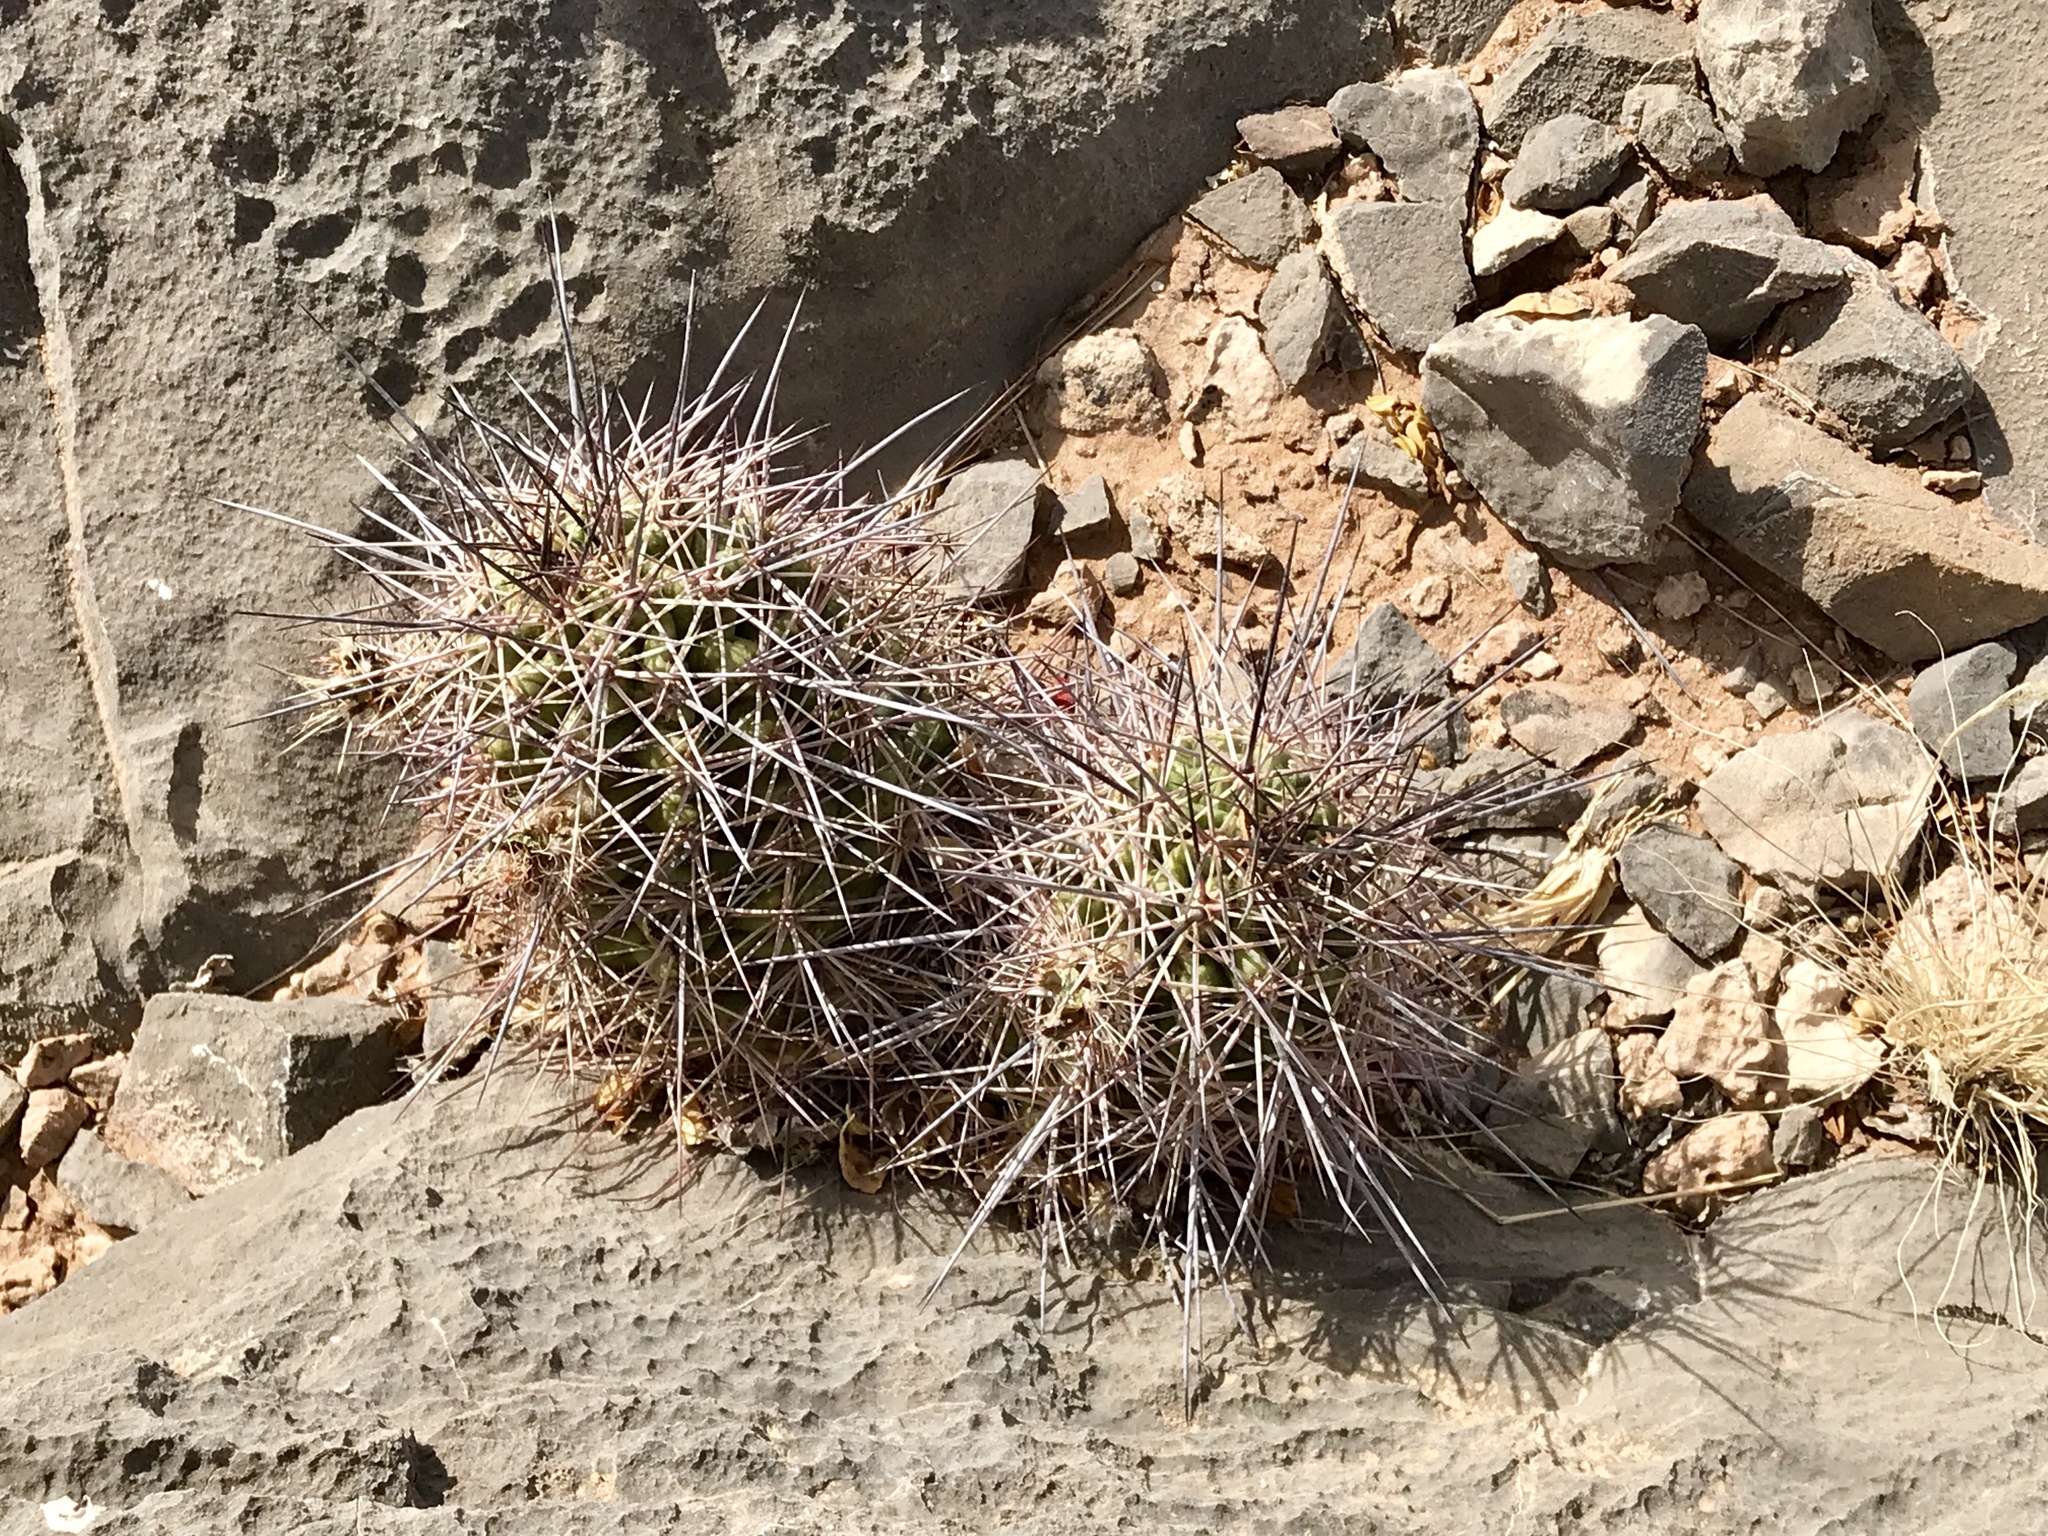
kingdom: Plantae
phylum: Tracheophyta
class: Magnoliopsida
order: Caryophyllales
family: Cactaceae
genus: Echinocereus
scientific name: Echinocereus coccineus
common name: Scarlet hedgehog cactus
